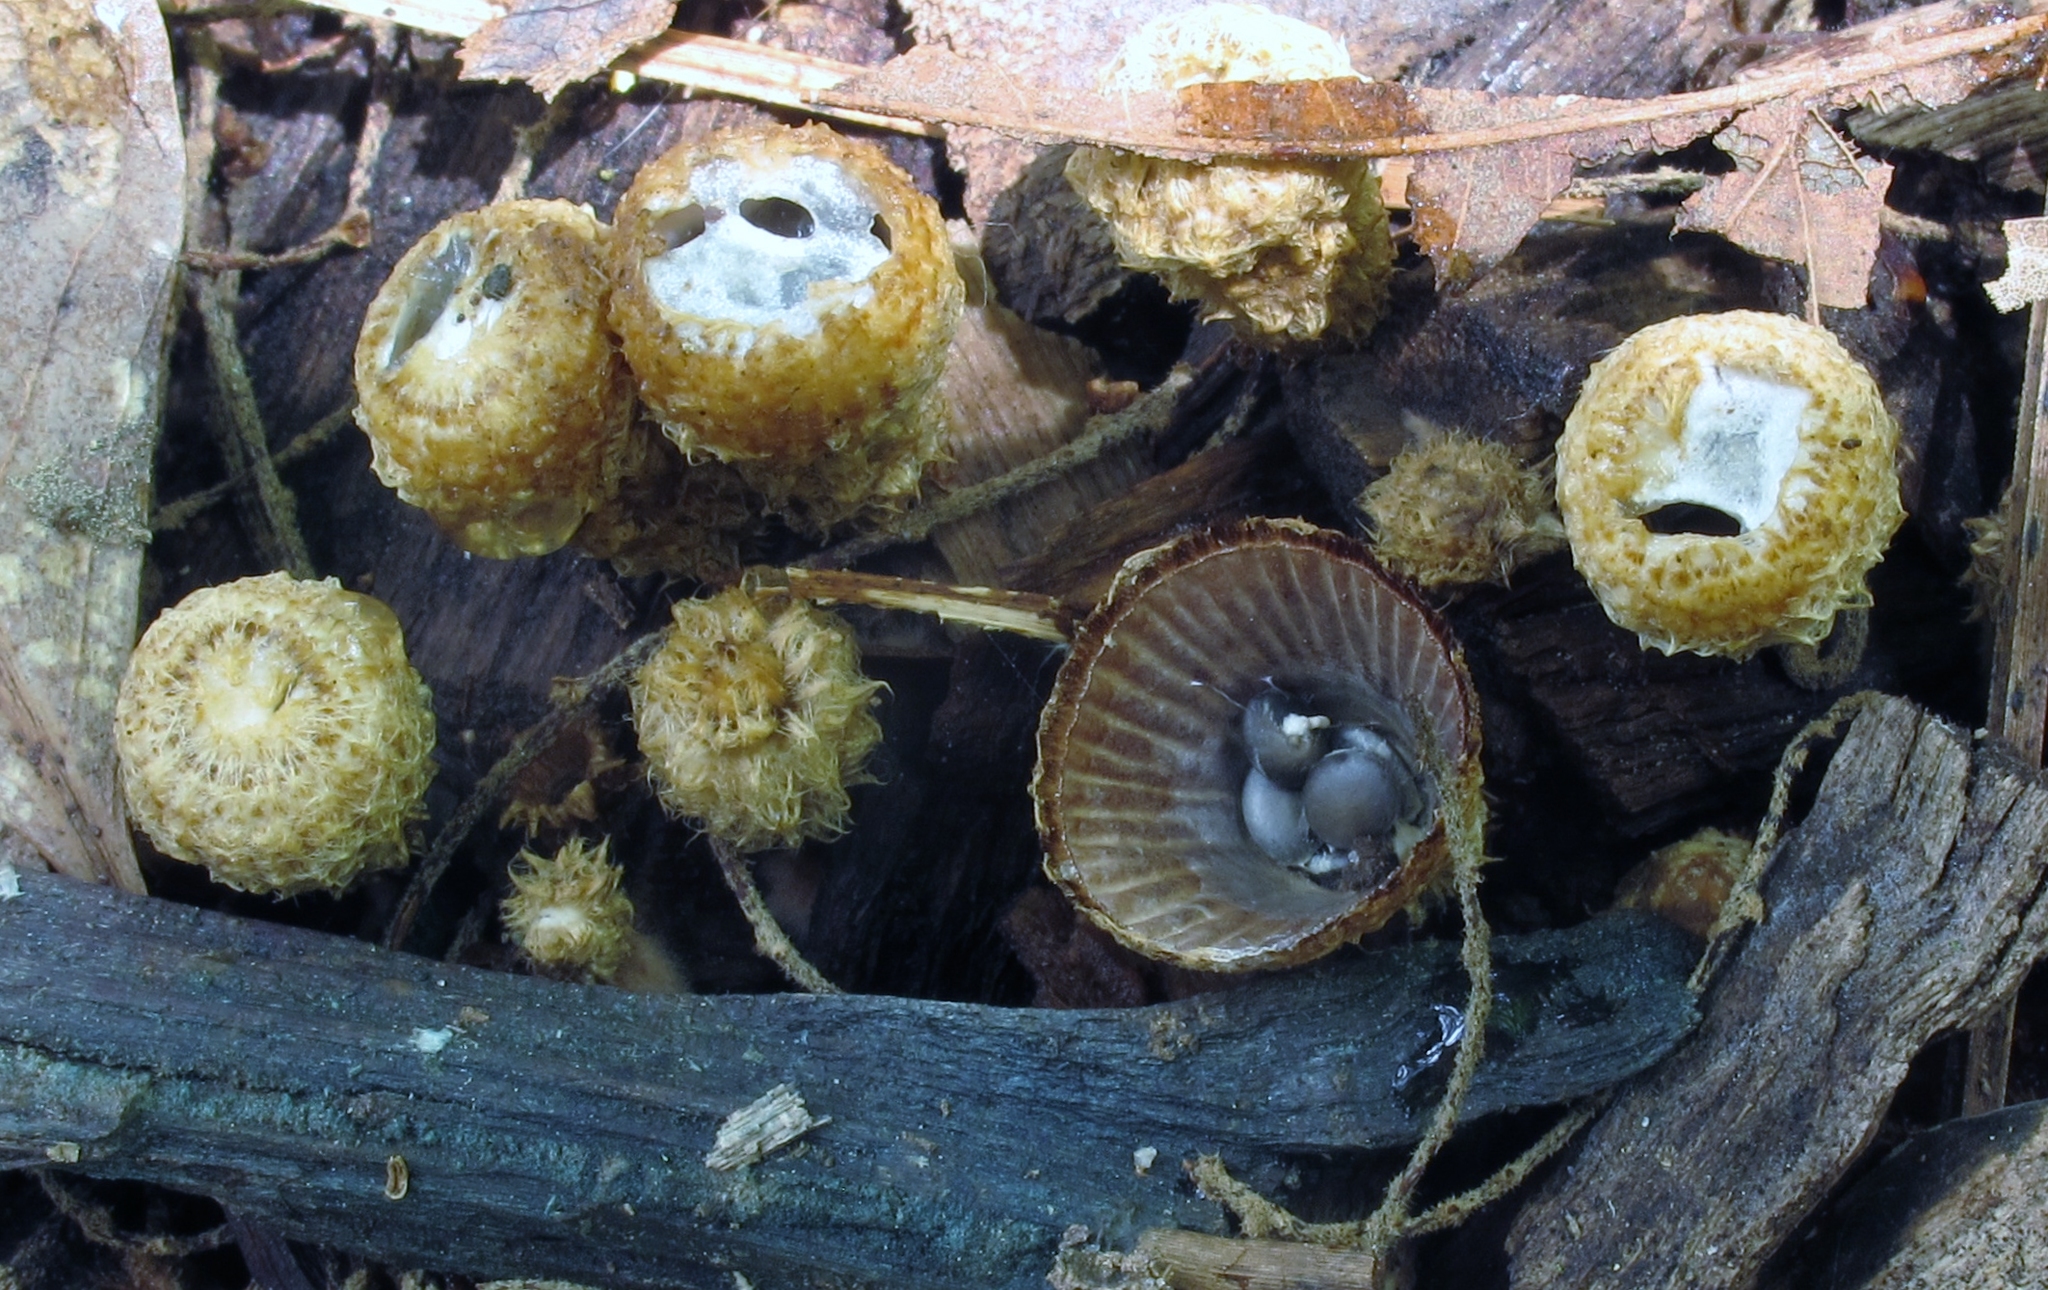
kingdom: Fungi
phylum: Basidiomycota
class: Agaricomycetes
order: Agaricales
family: Agaricaceae
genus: Cyathus
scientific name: Cyathus striatus
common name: Fluted bird's nest
